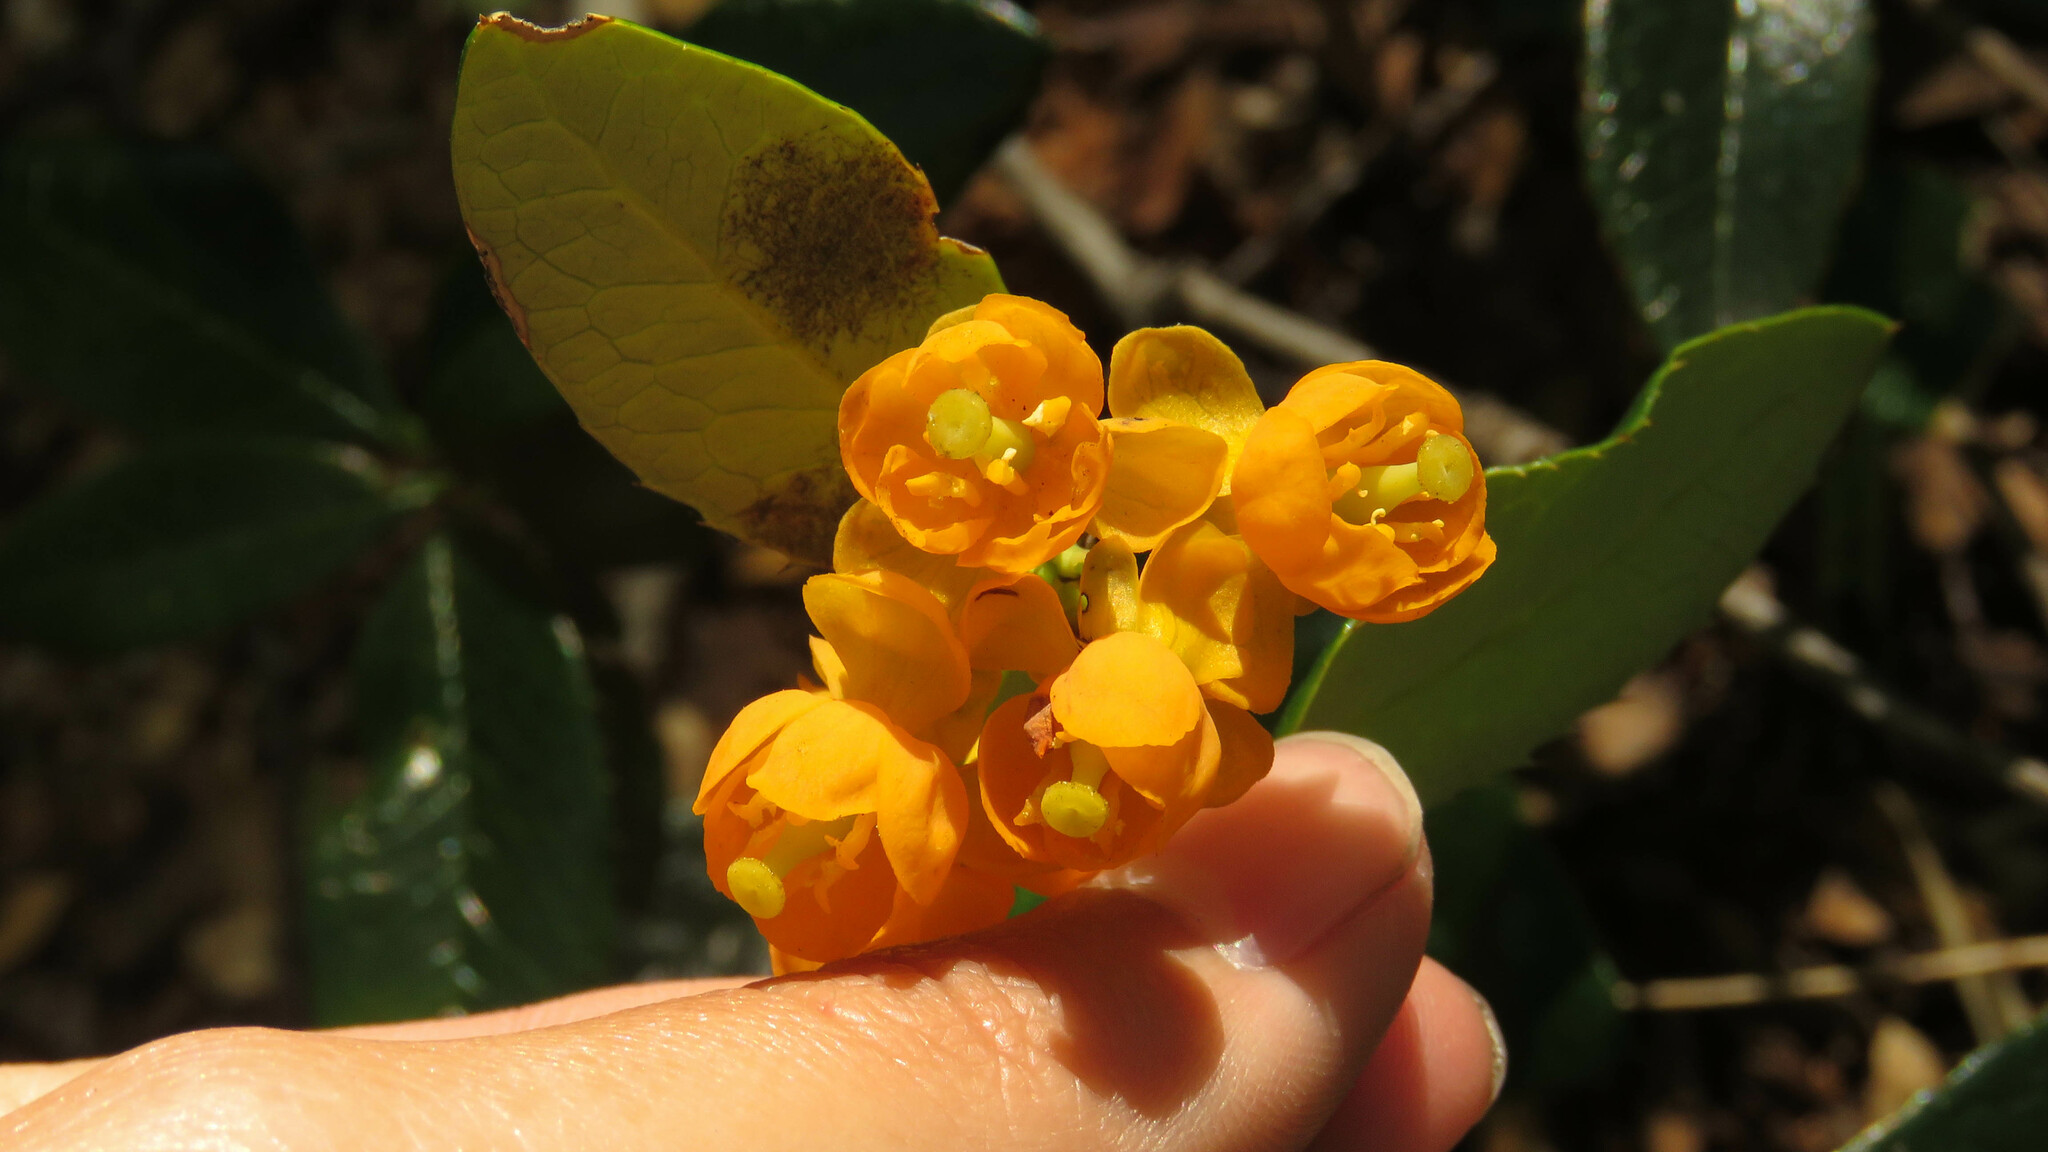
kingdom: Plantae
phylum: Tracheophyta
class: Magnoliopsida
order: Ranunculales
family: Berberidaceae
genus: Berberis
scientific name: Berberis pseudoilicifolia
